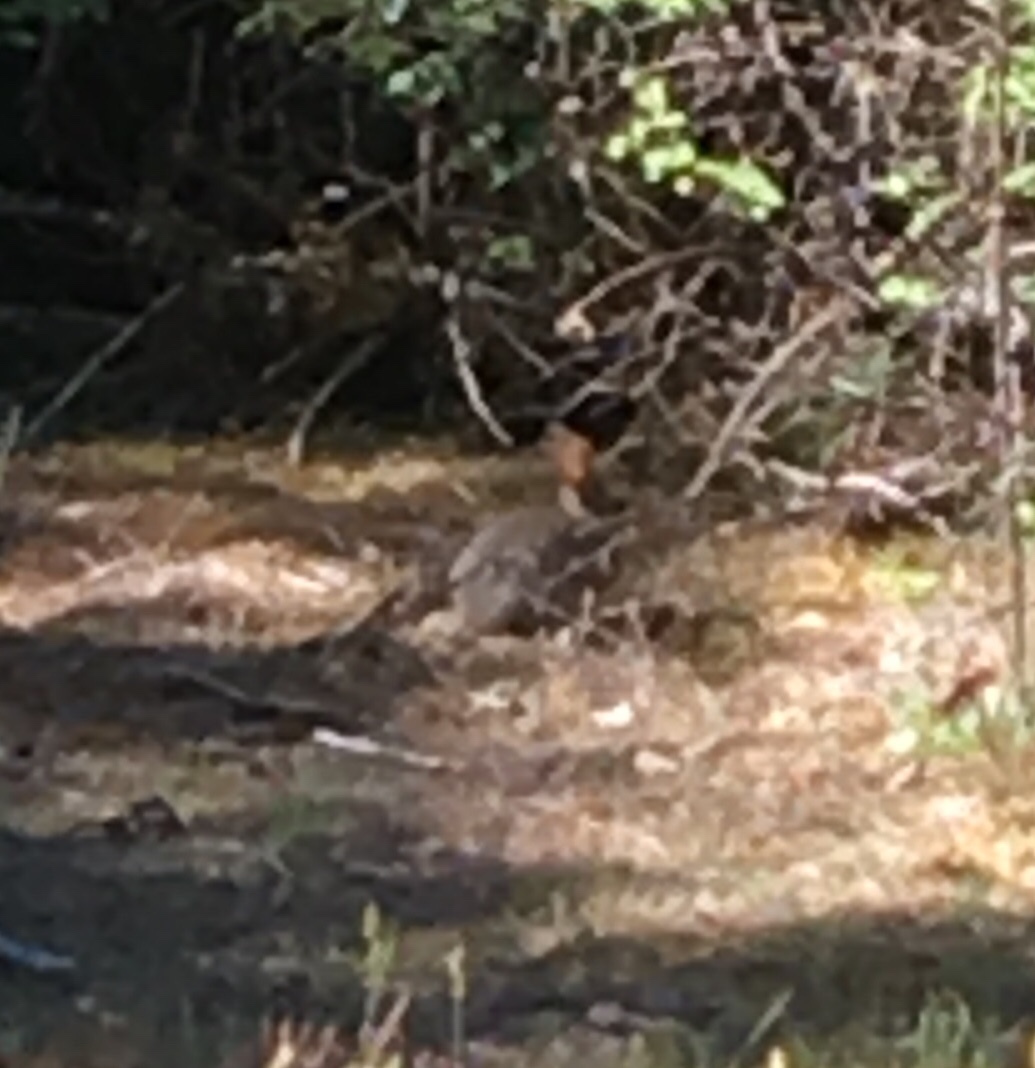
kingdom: Animalia
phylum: Chordata
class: Mammalia
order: Lagomorpha
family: Leporidae
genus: Sylvilagus
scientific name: Sylvilagus bachmani
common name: Brush rabbit
